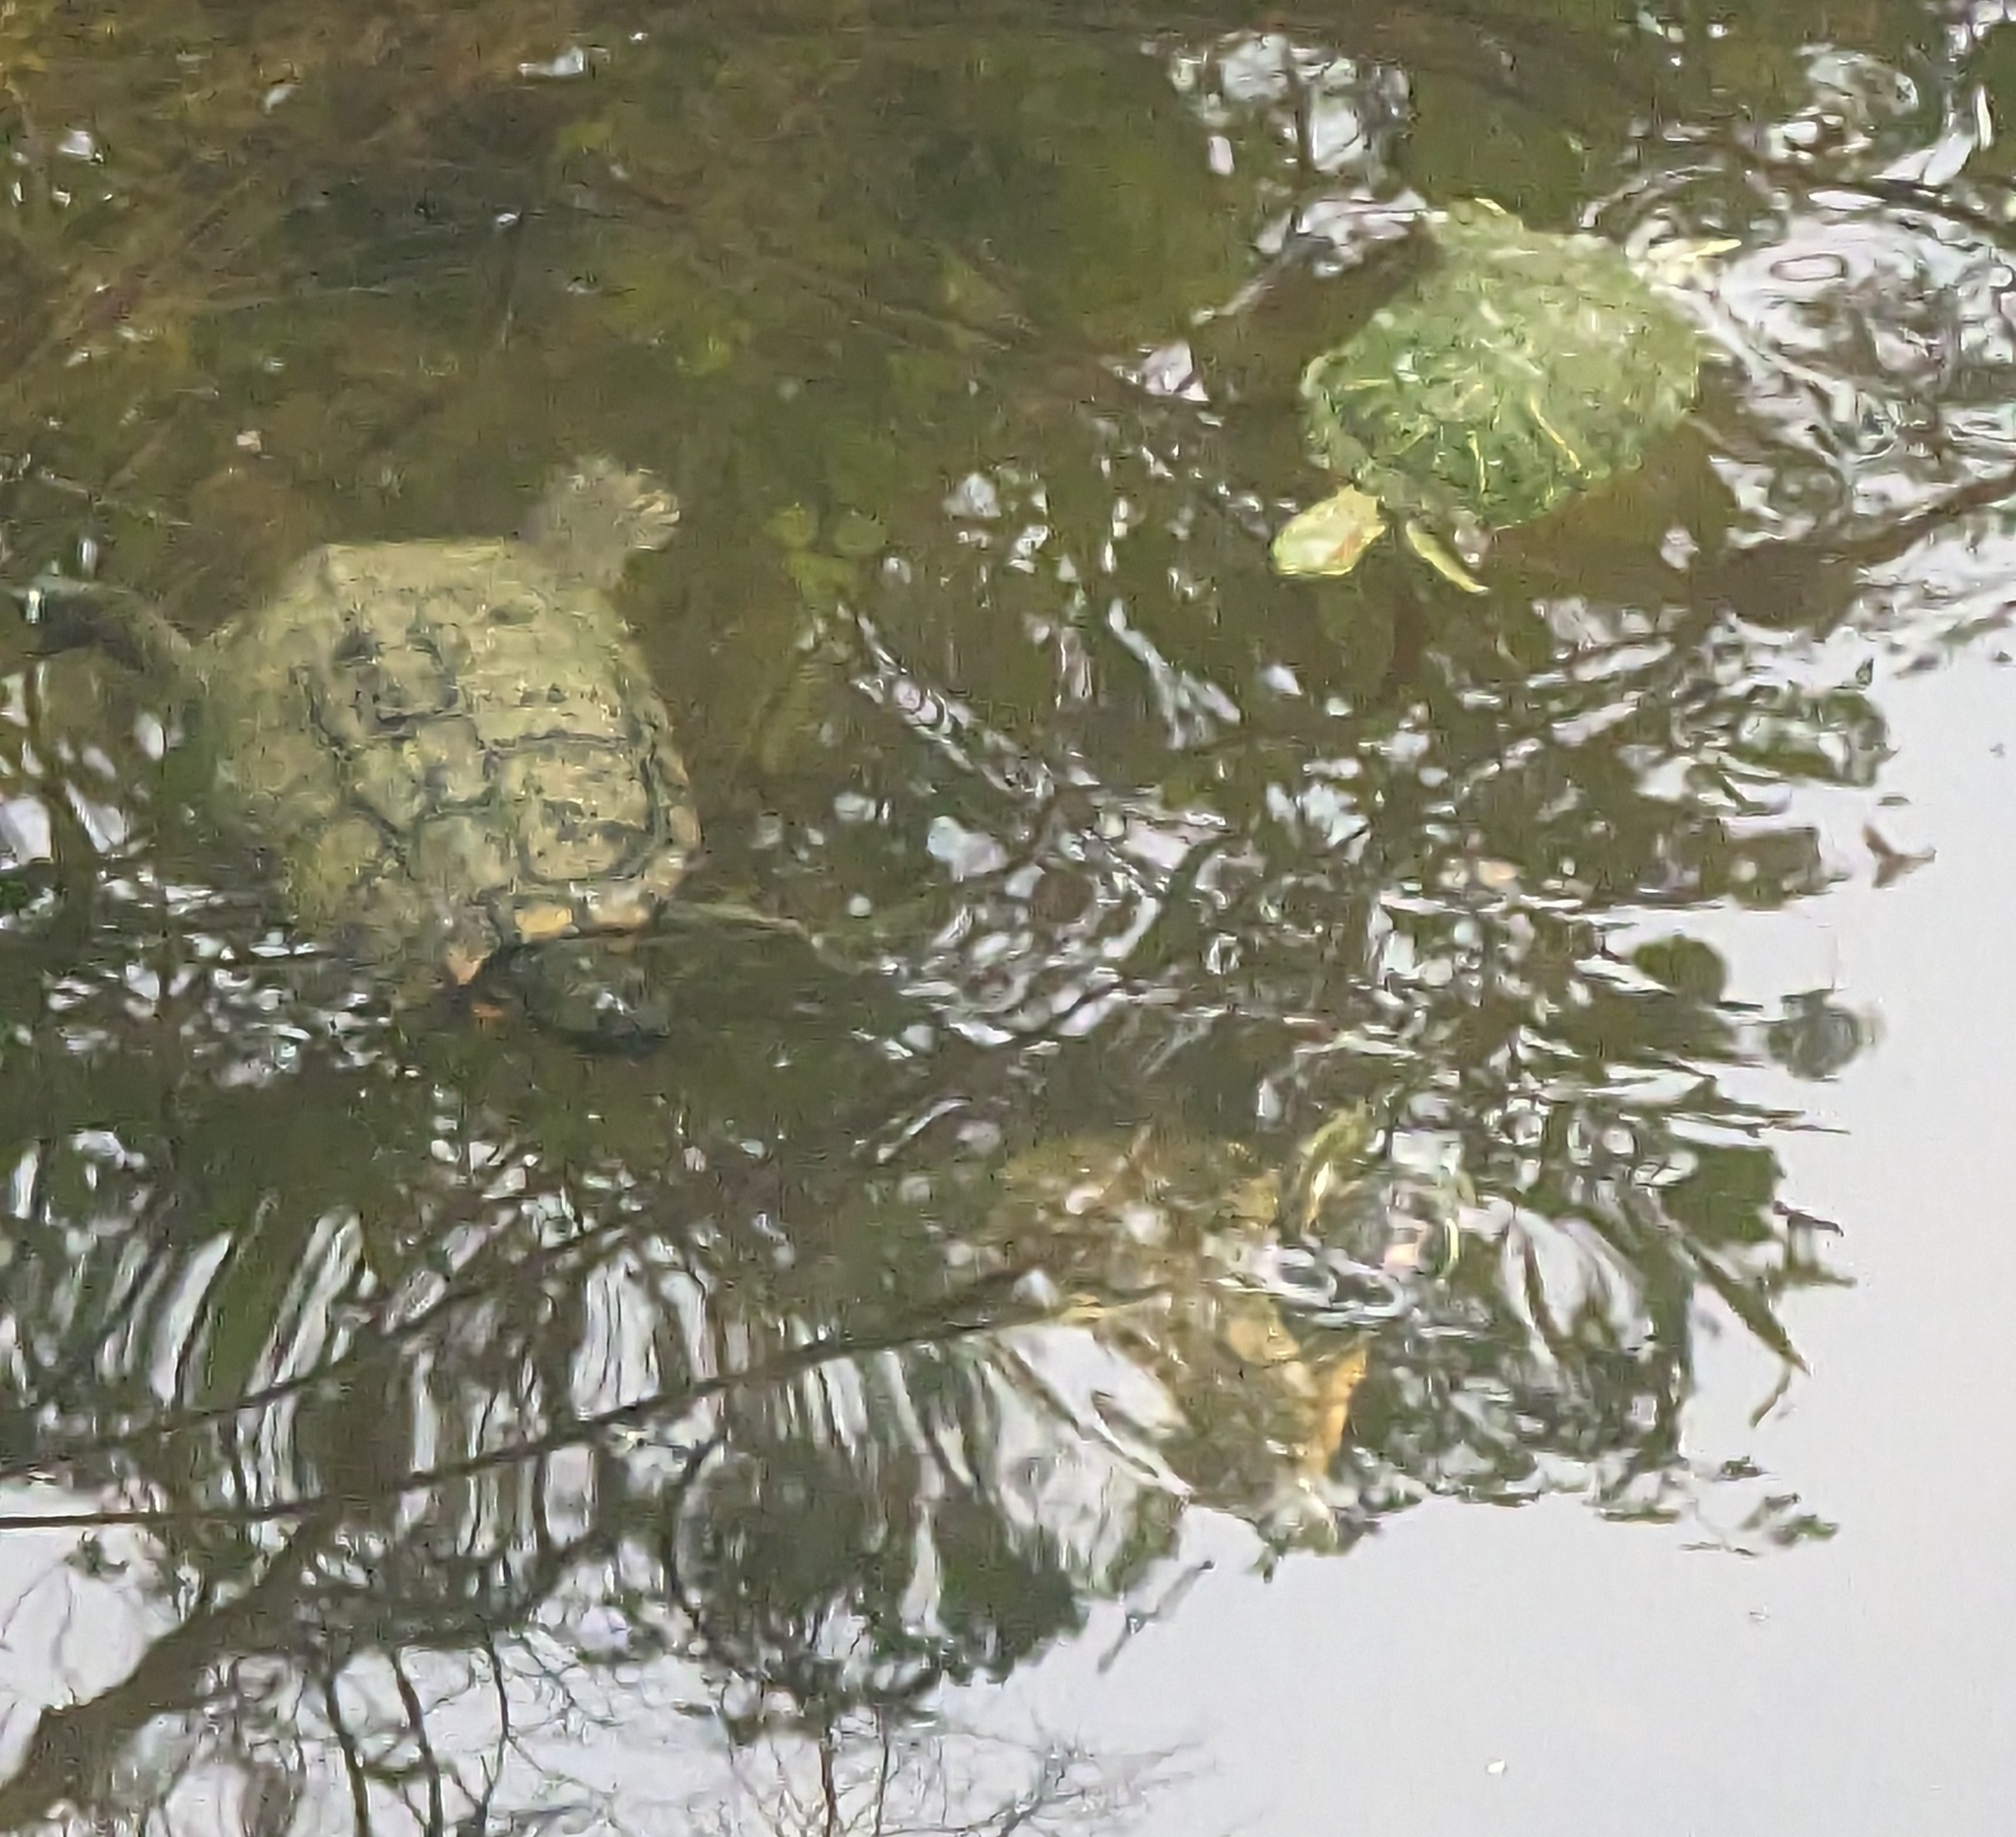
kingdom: Animalia
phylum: Chordata
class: Testudines
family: Emydidae
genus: Trachemys
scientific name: Trachemys scripta
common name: Slider
